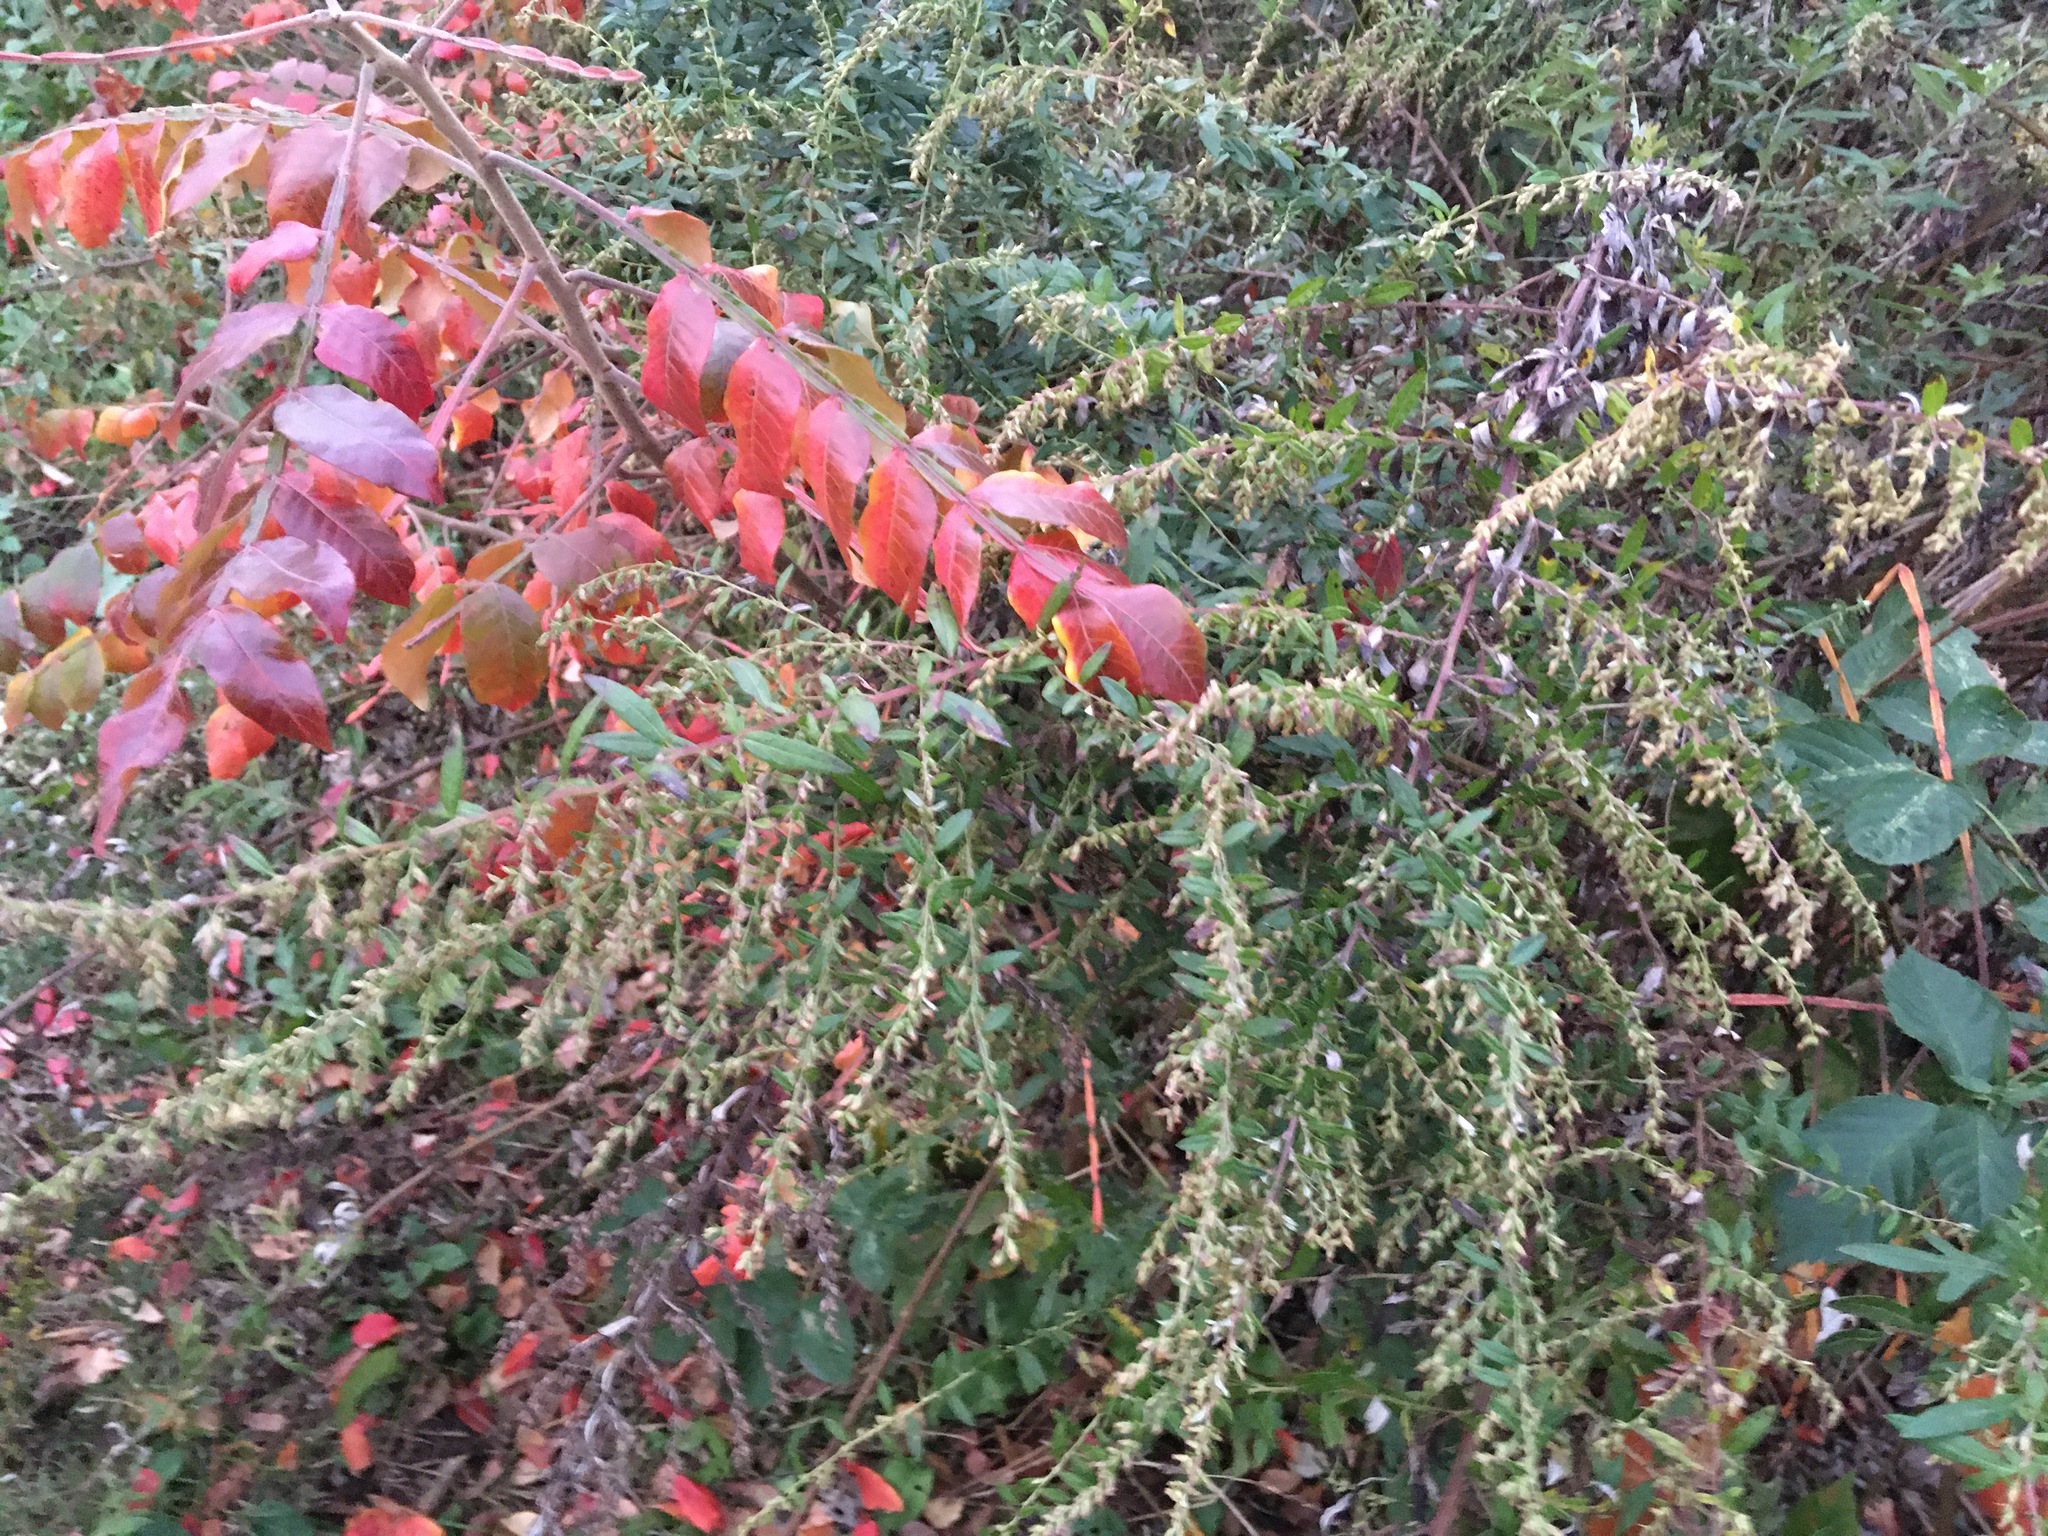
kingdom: Plantae
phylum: Tracheophyta
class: Magnoliopsida
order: Asterales
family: Asteraceae
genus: Artemisia
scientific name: Artemisia vulgaris
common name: Mugwort
